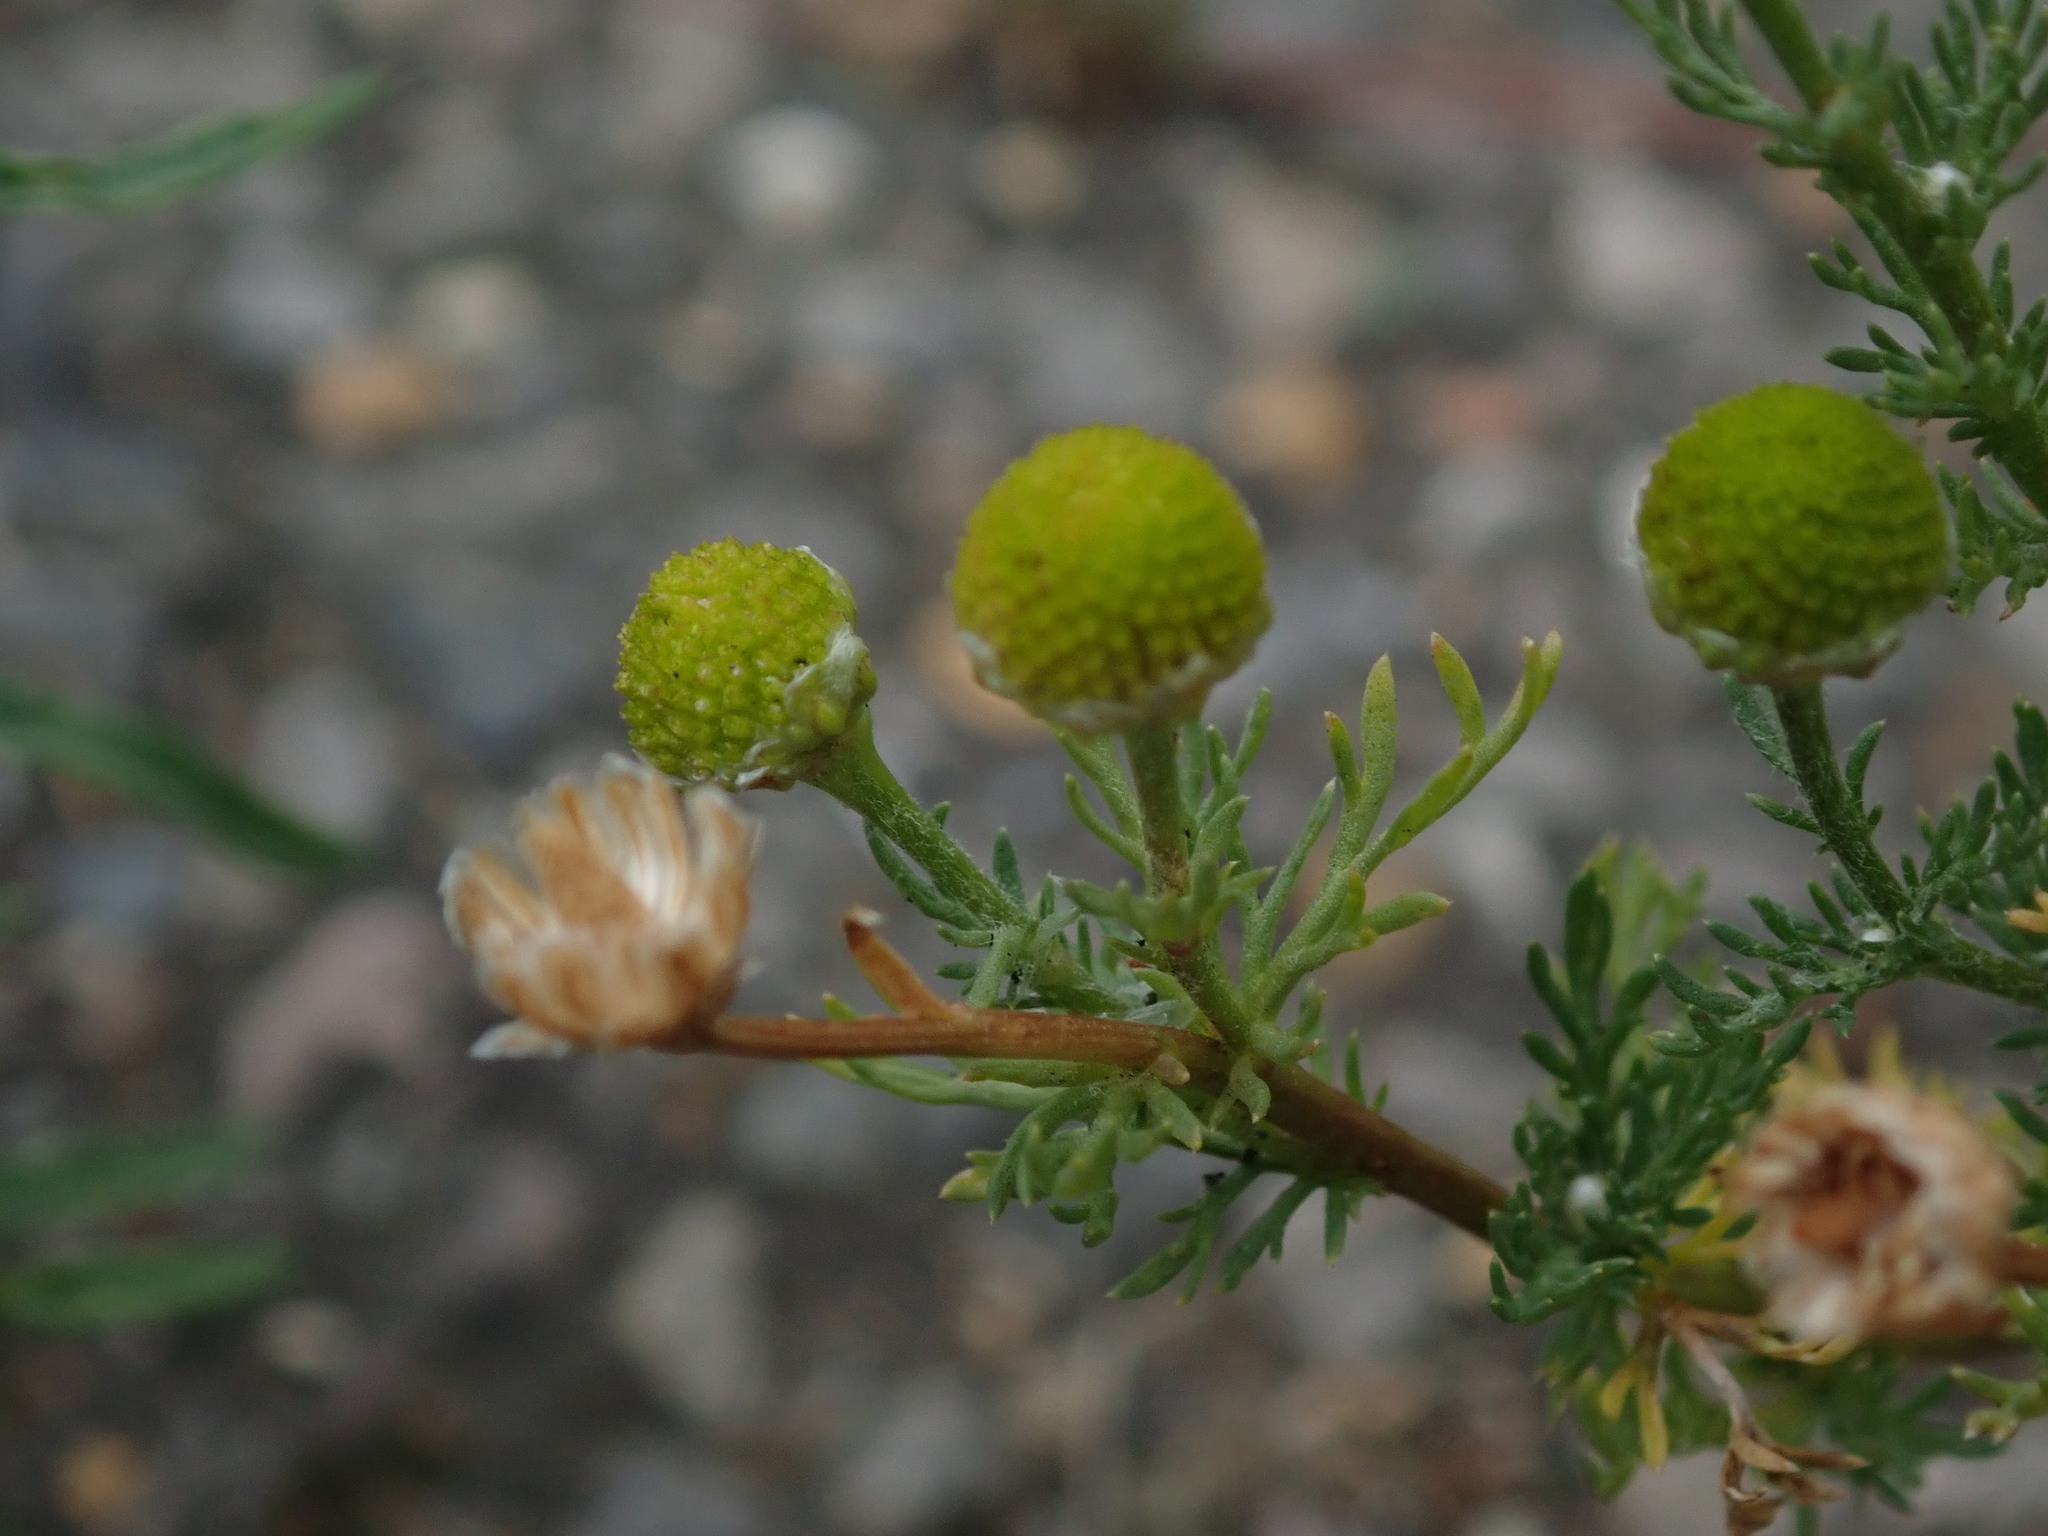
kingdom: Plantae
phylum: Tracheophyta
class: Magnoliopsida
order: Asterales
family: Asteraceae
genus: Matricaria
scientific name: Matricaria discoidea
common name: Disc mayweed
